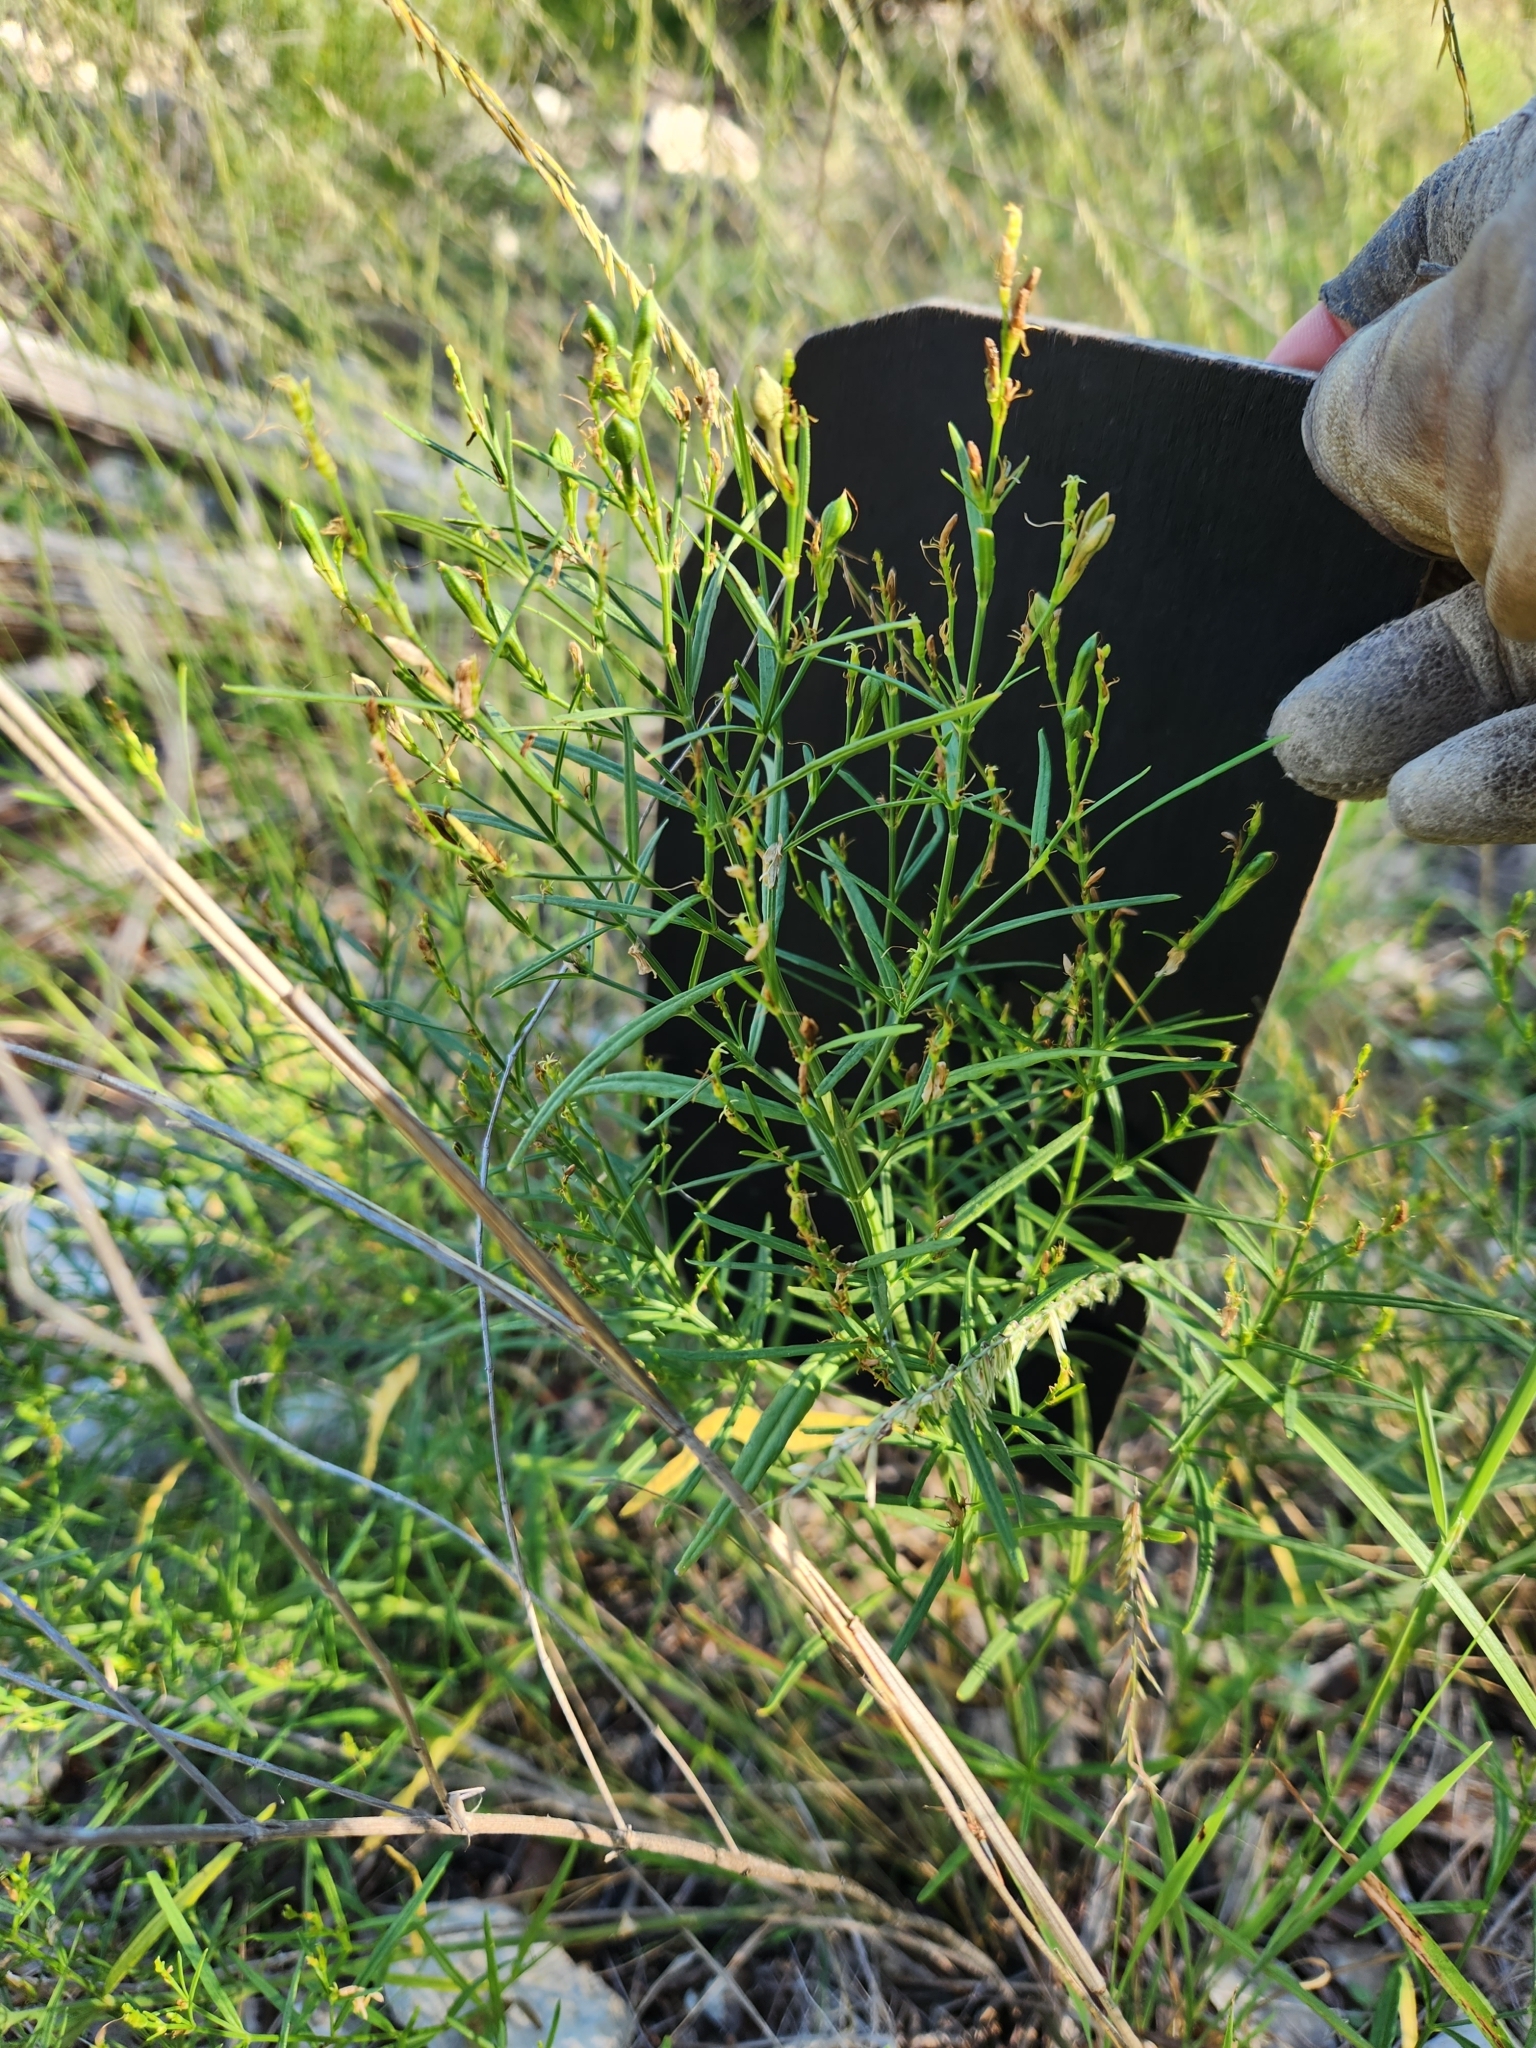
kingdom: Plantae
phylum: Tracheophyta
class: Magnoliopsida
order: Lamiales
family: Acanthaceae
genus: Carlowrightia
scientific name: Carlowrightia linearifolia
